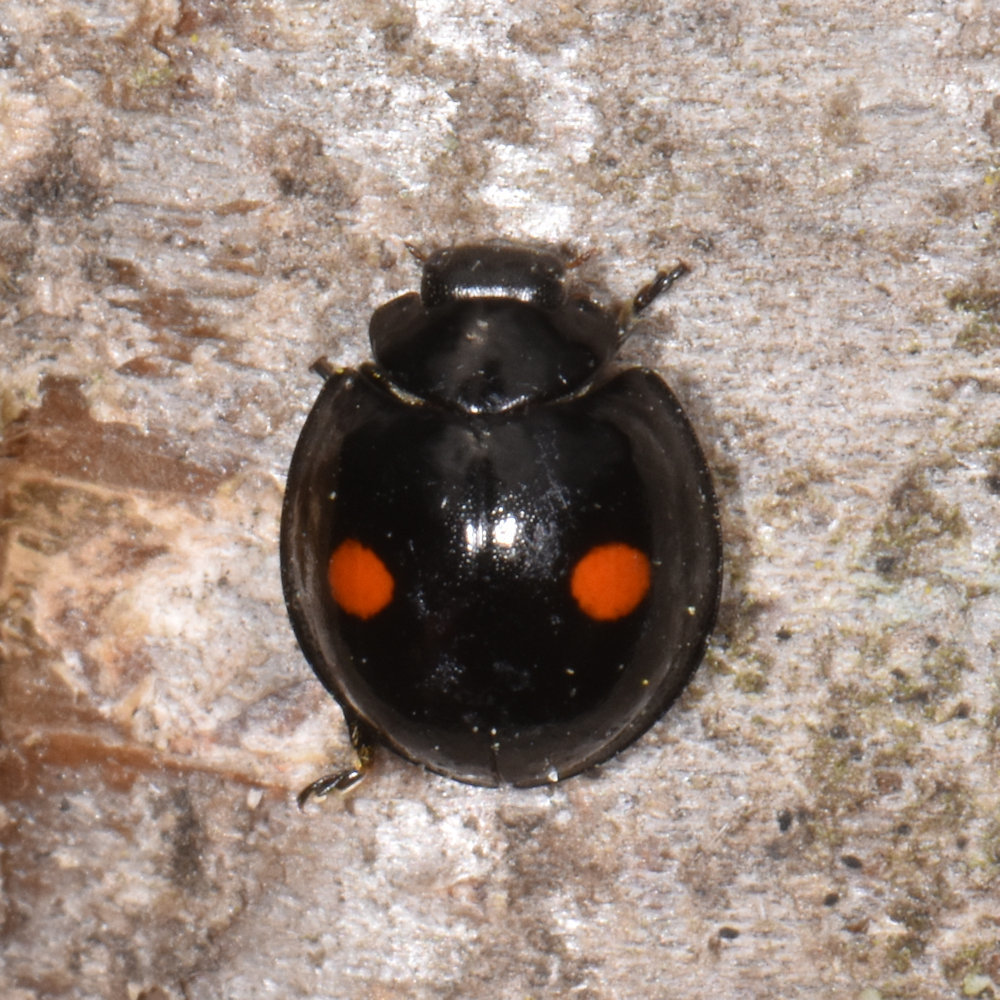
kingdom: Animalia
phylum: Arthropoda
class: Insecta
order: Coleoptera
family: Coccinellidae
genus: Chilocorus
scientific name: Chilocorus stigma
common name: Twicestabbed lady beetle
